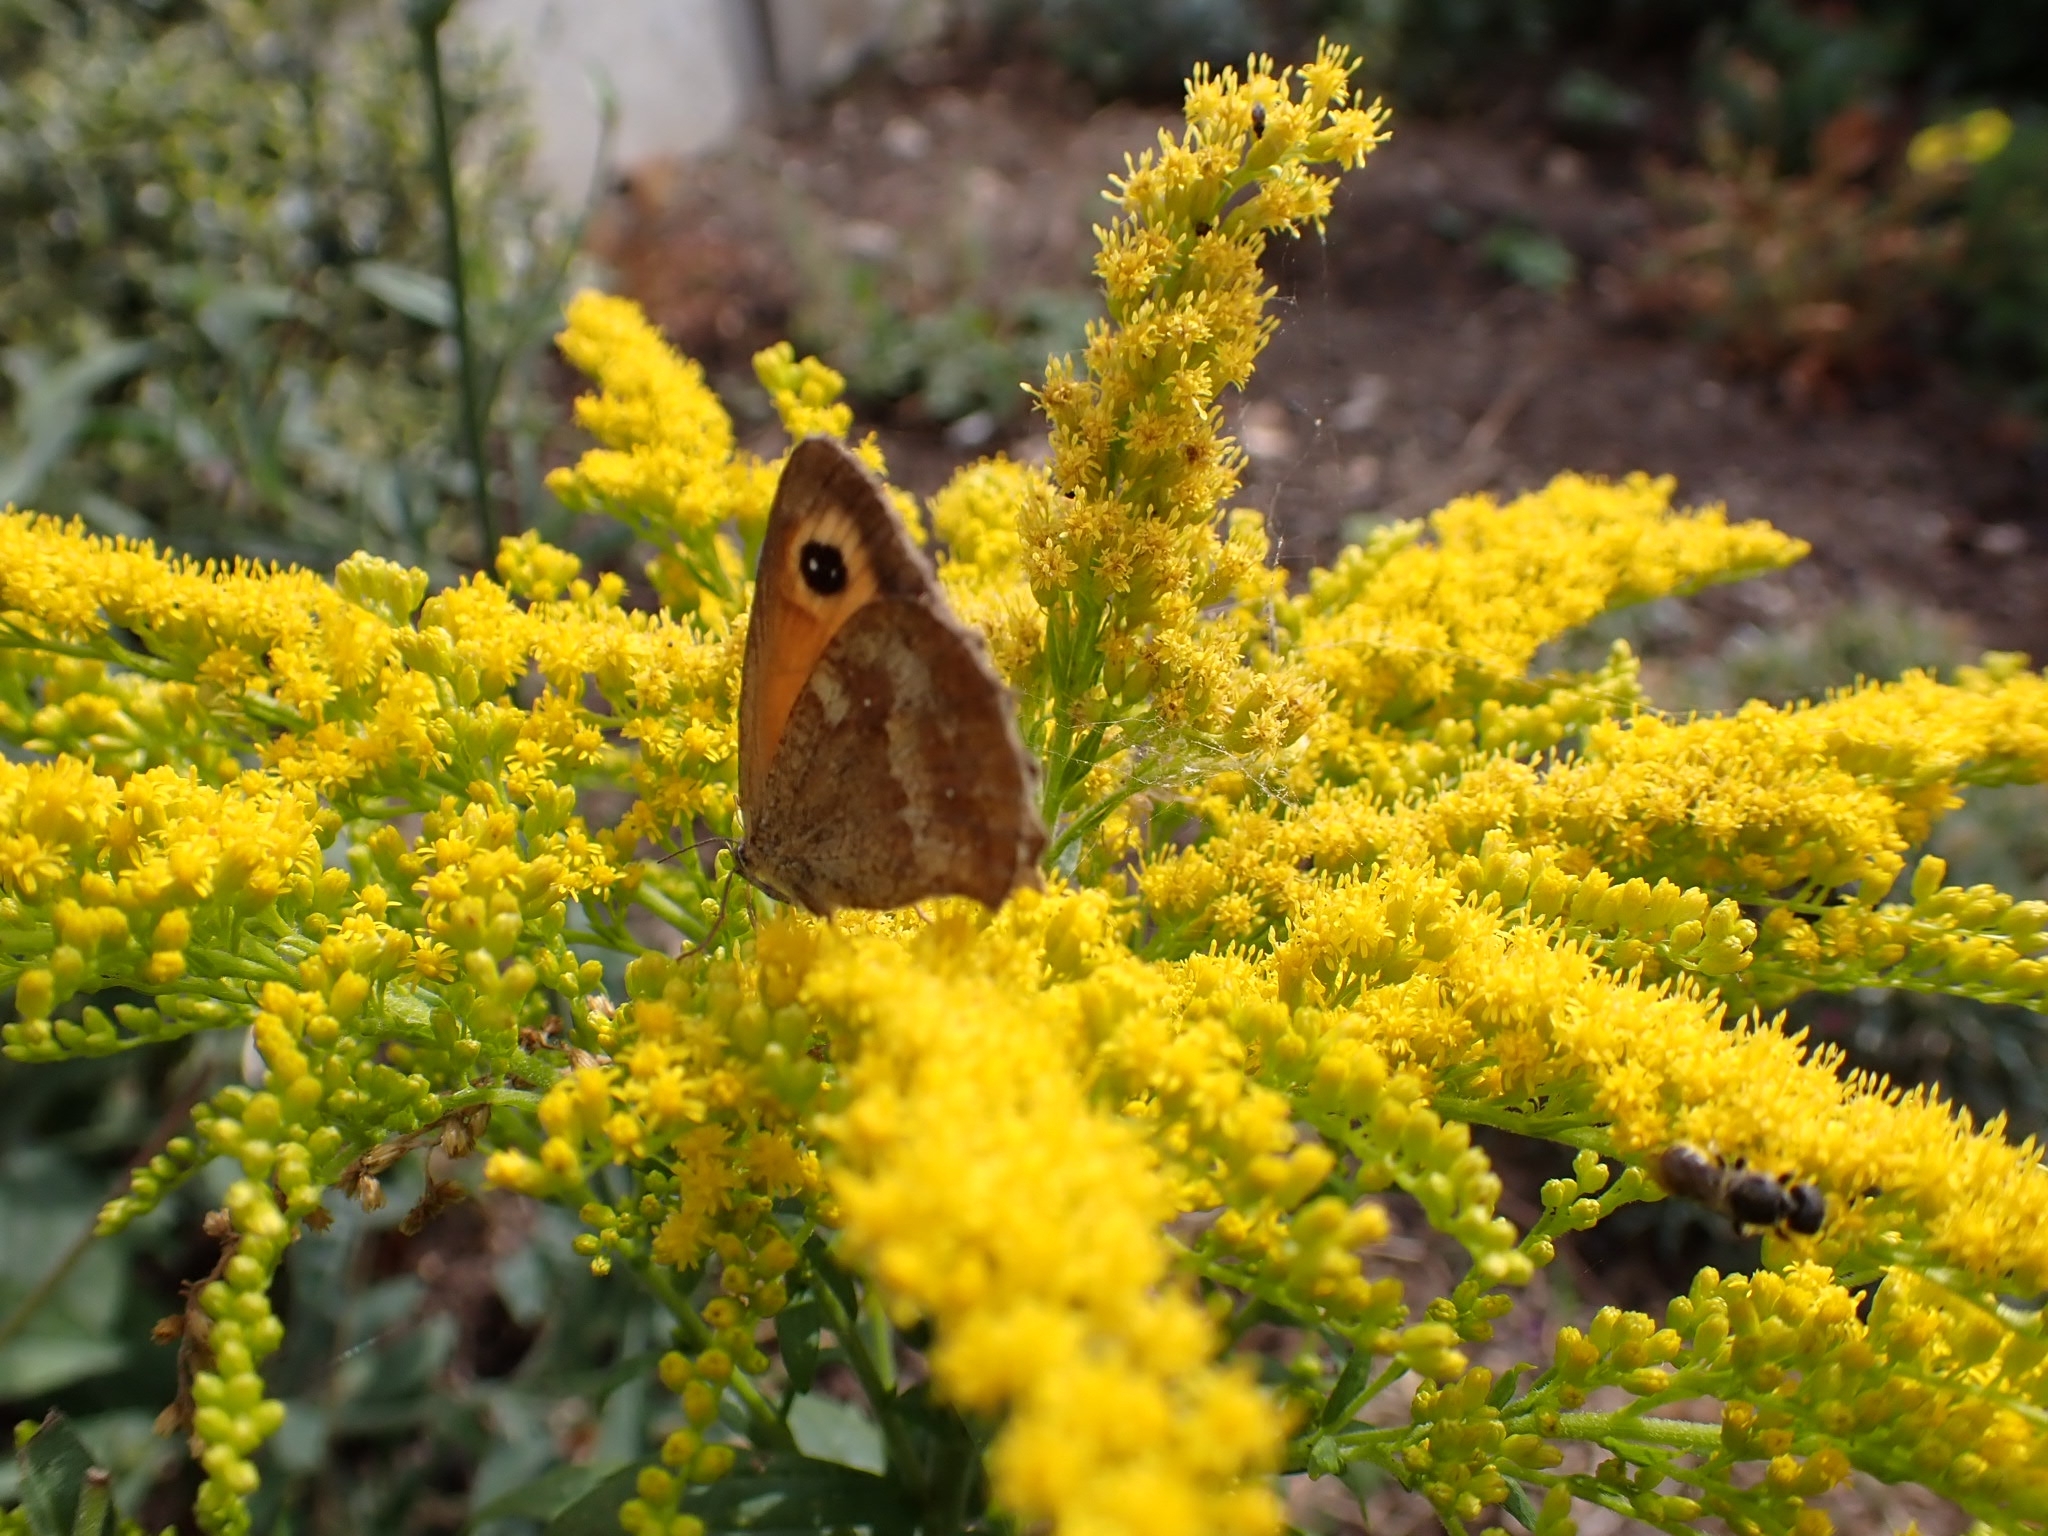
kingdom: Animalia
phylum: Arthropoda
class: Insecta
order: Lepidoptera
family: Nymphalidae
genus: Pyronia
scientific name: Pyronia tithonus
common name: Gatekeeper
